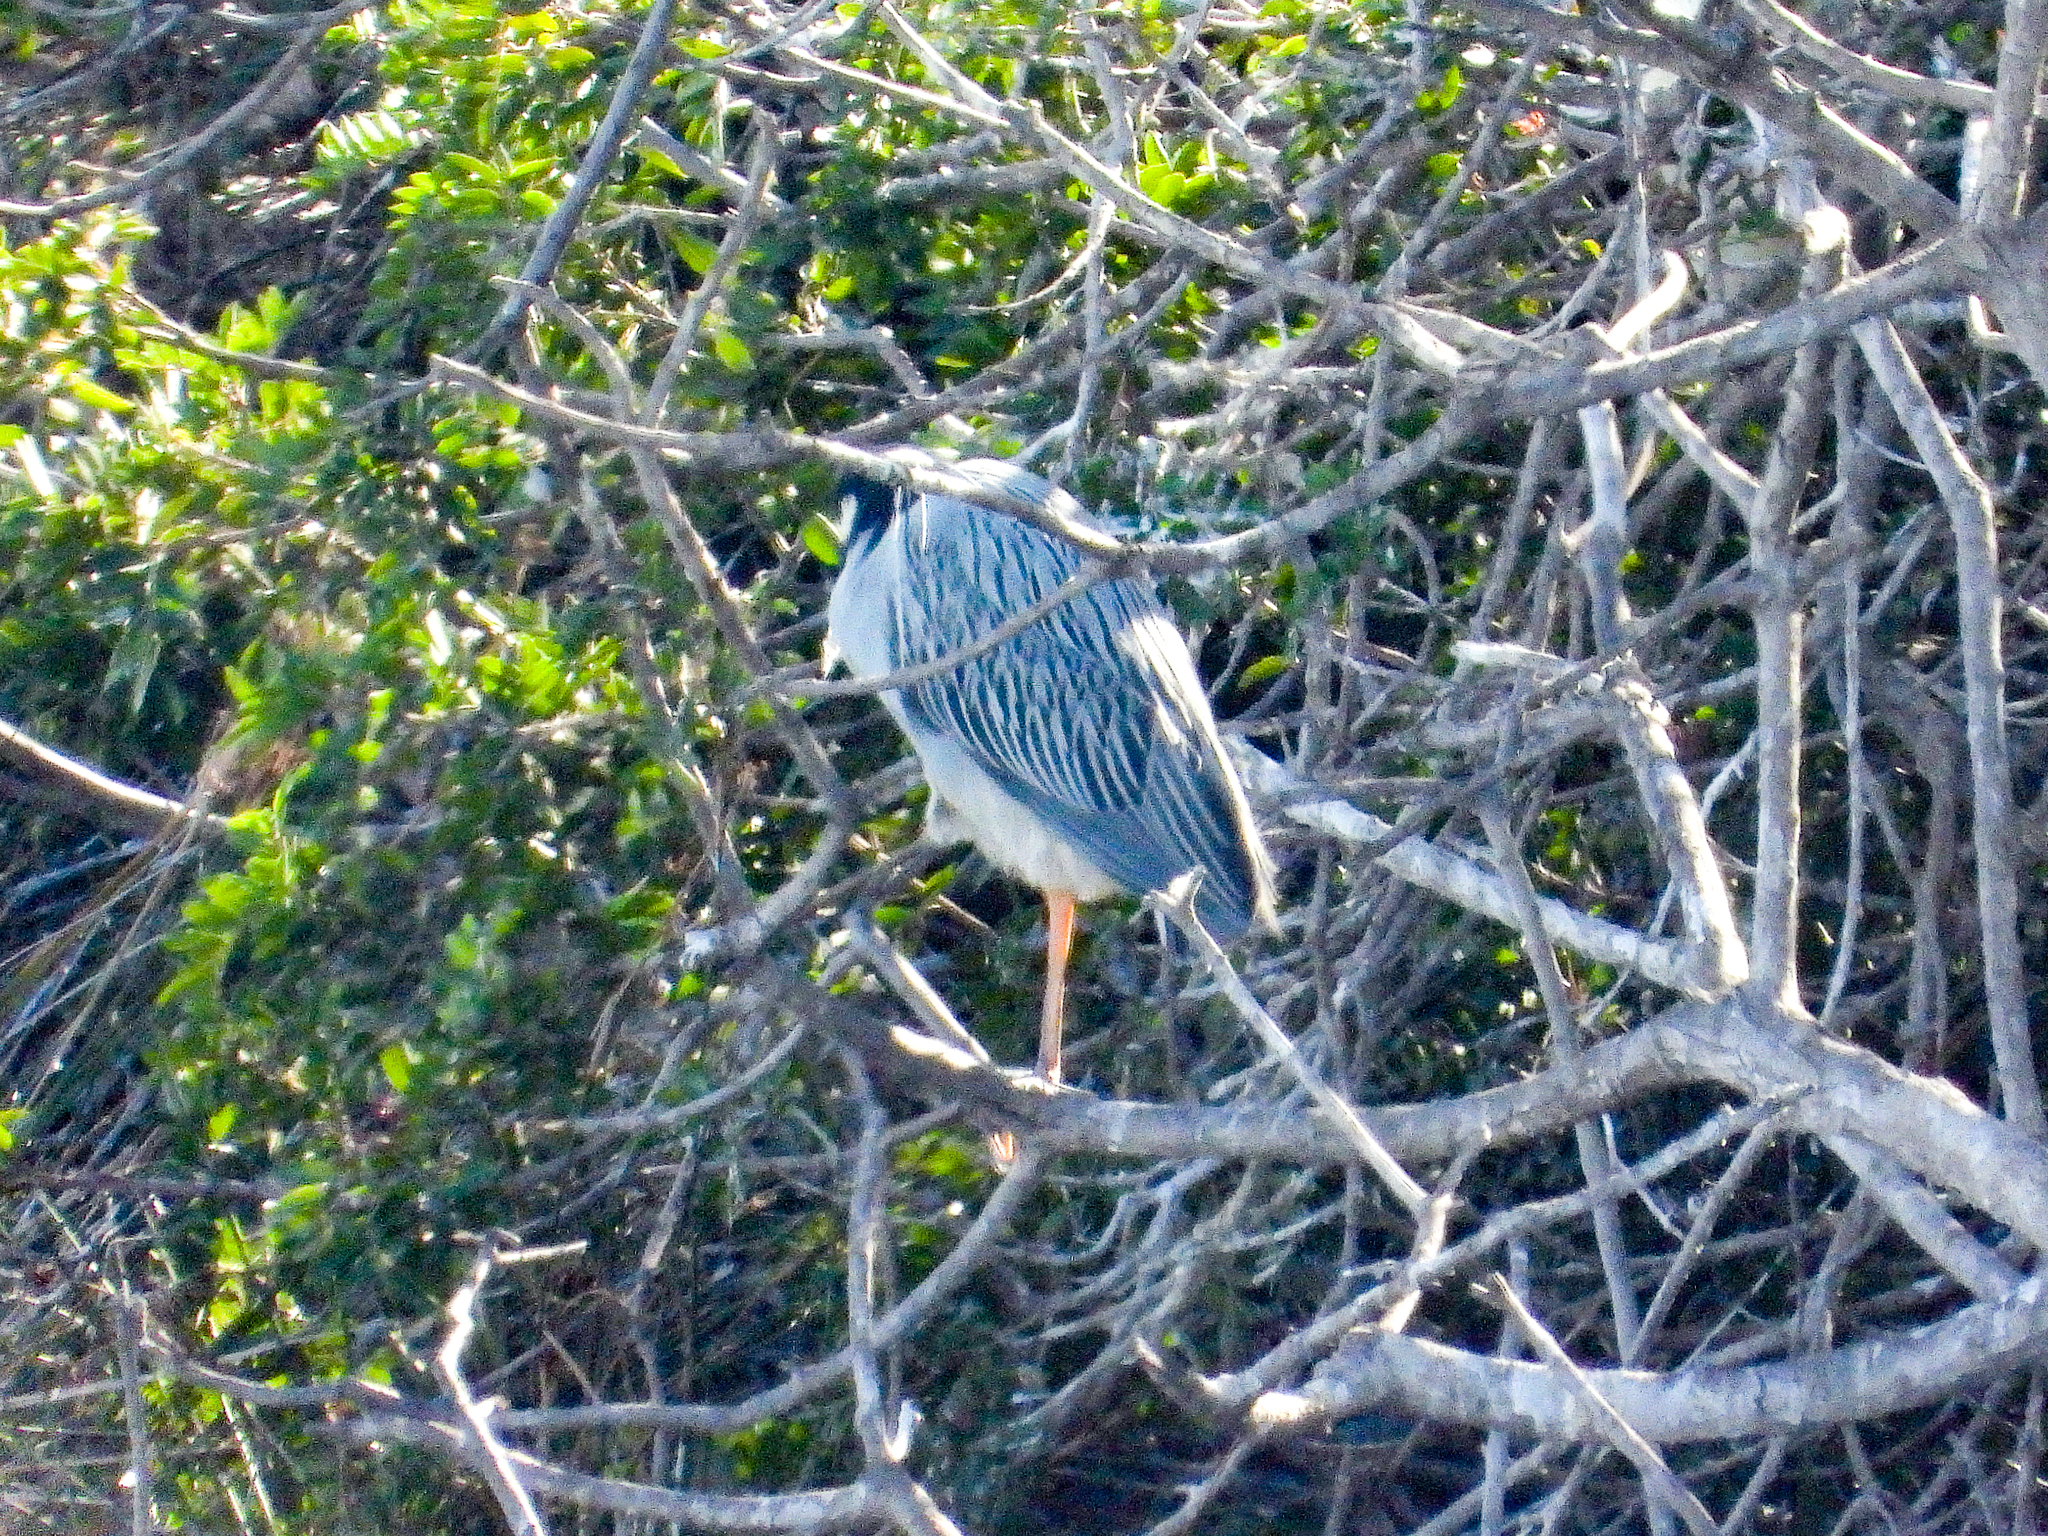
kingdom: Animalia
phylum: Chordata
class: Aves
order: Pelecaniformes
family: Ardeidae
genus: Nyctanassa
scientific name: Nyctanassa violacea
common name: Yellow-crowned night heron
